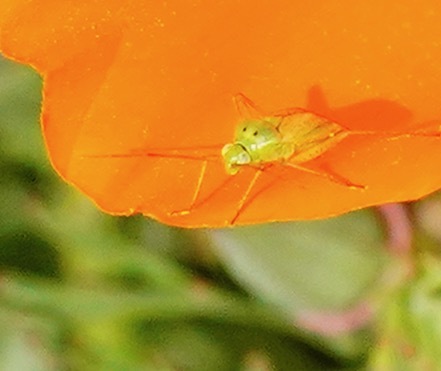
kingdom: Animalia
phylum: Arthropoda
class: Insecta
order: Hemiptera
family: Miridae
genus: Closterotomus
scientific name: Closterotomus norvegicus
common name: Plant bug
